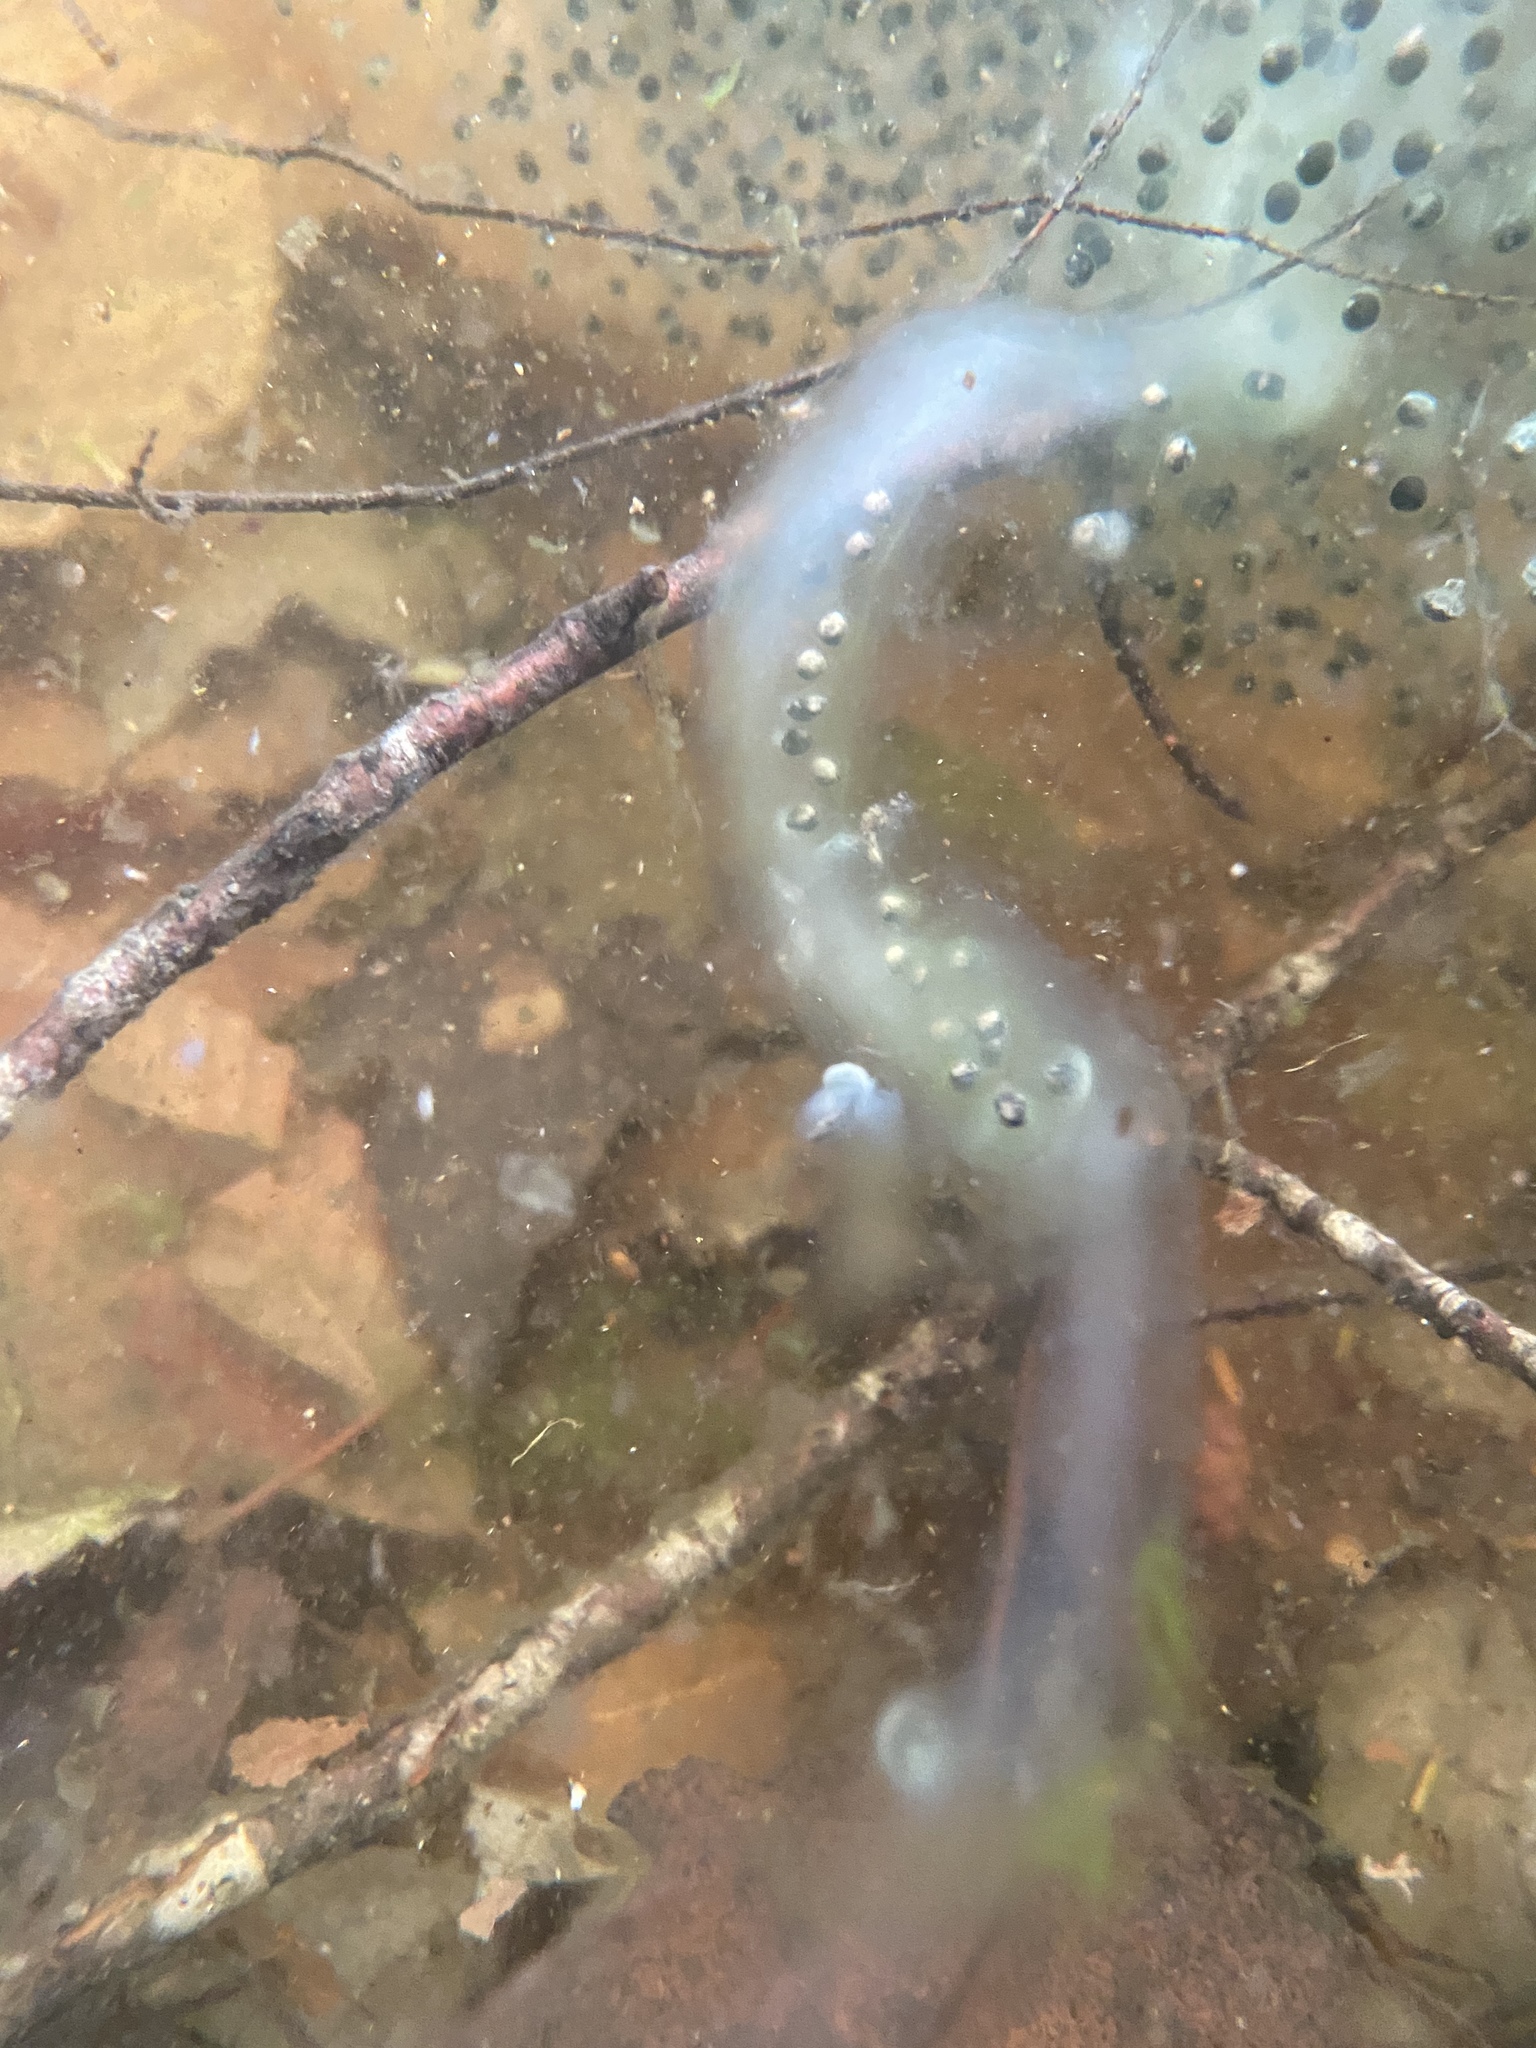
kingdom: Animalia
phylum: Chordata
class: Amphibia
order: Anura
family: Bufonidae
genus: Anaxyrus
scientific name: Anaxyrus americanus
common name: American toad
